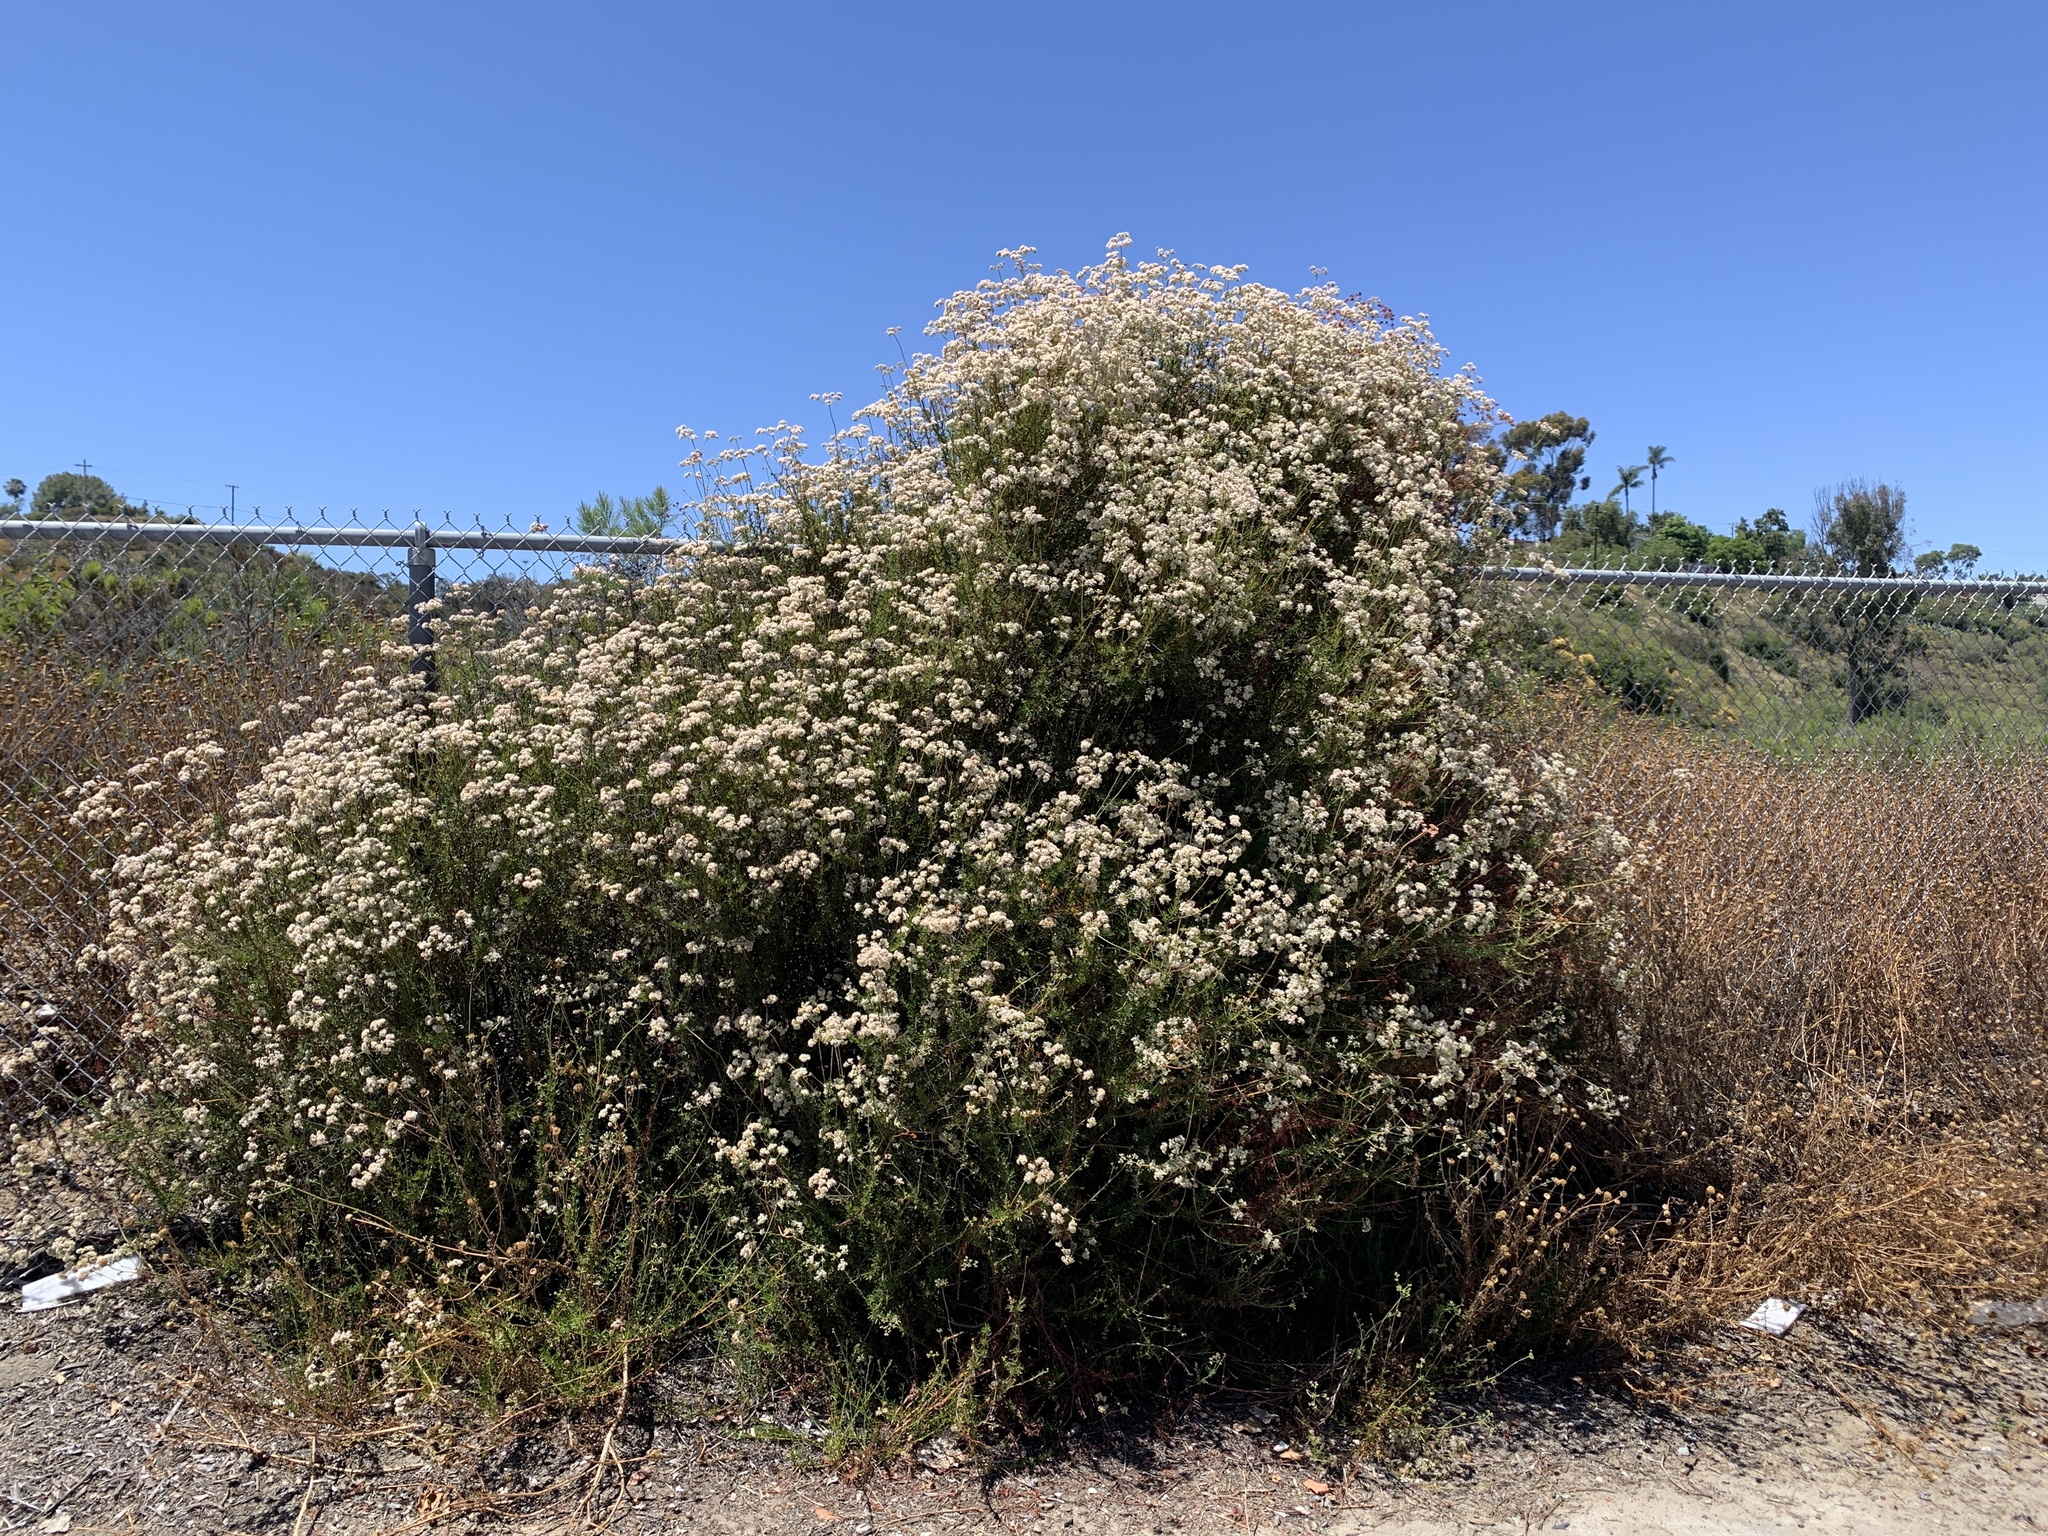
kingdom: Plantae
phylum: Tracheophyta
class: Magnoliopsida
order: Caryophyllales
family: Polygonaceae
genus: Eriogonum
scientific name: Eriogonum fasciculatum
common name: California wild buckwheat
